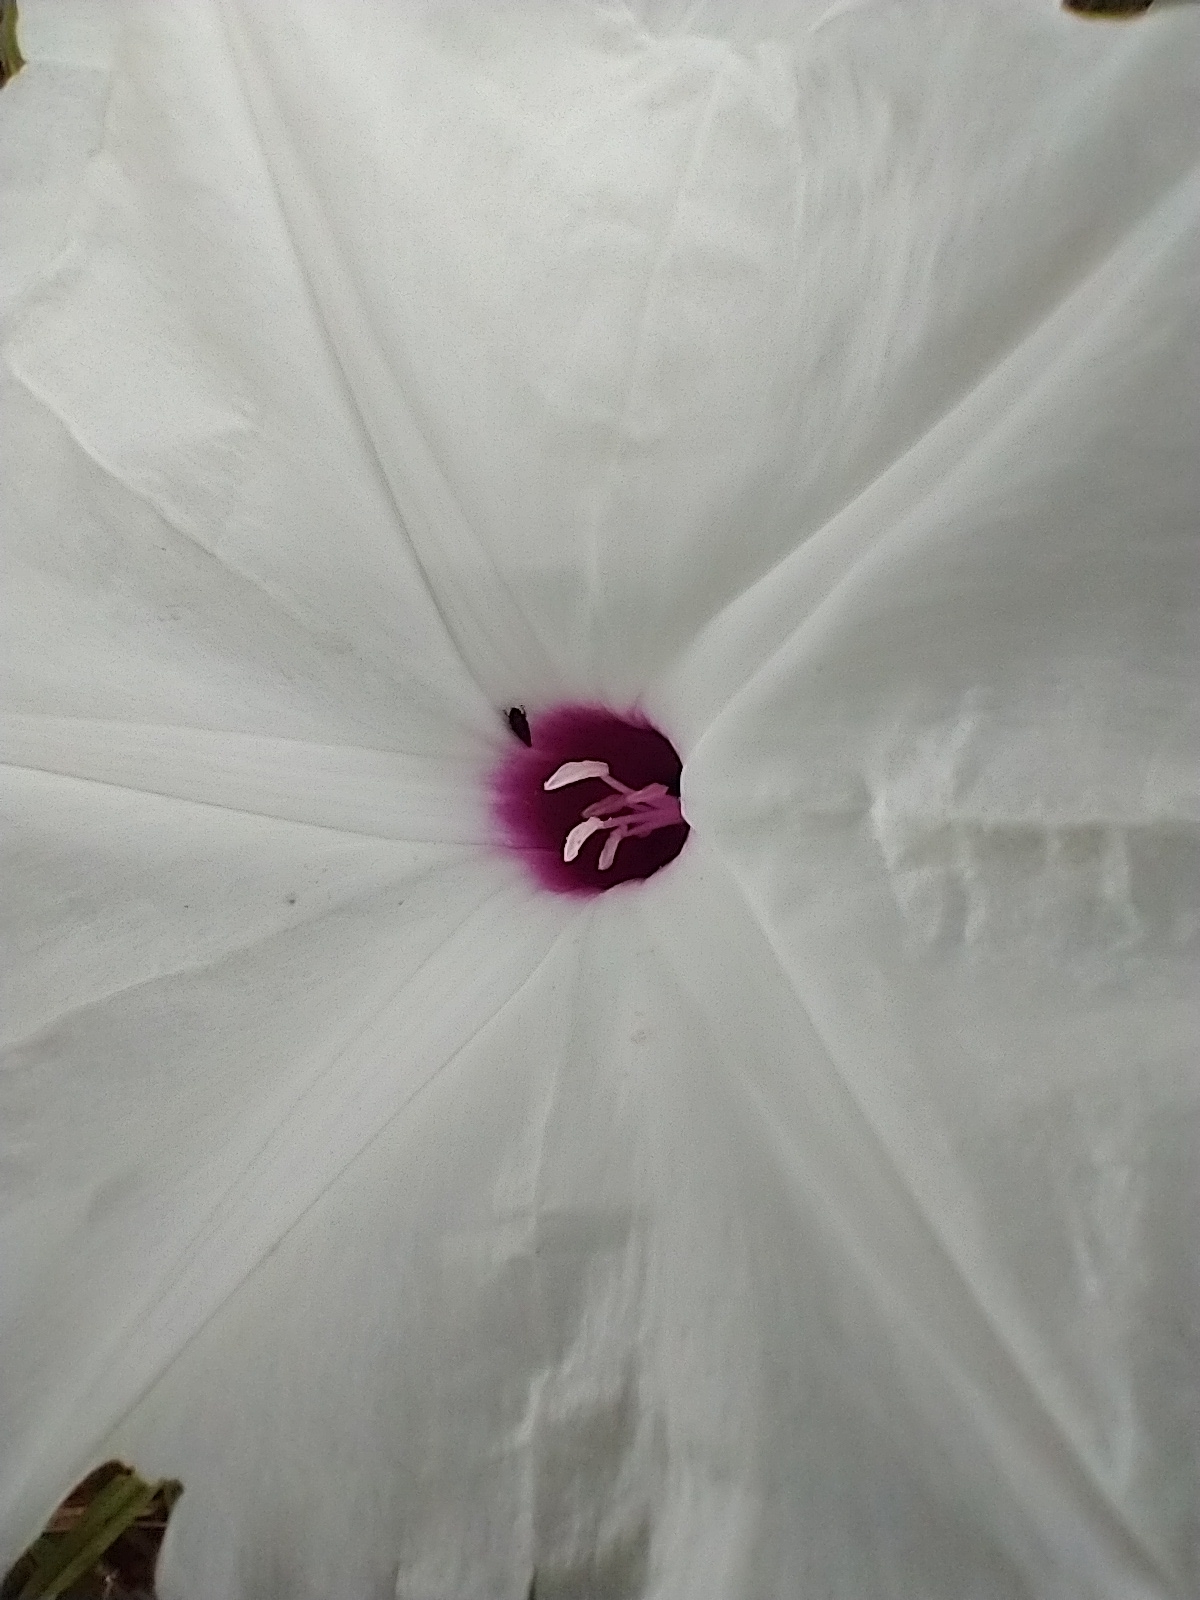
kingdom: Plantae
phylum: Tracheophyta
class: Magnoliopsida
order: Solanales
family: Convolvulaceae
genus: Ipomoea
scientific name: Ipomoea pandurata
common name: Man-of-the-earth
